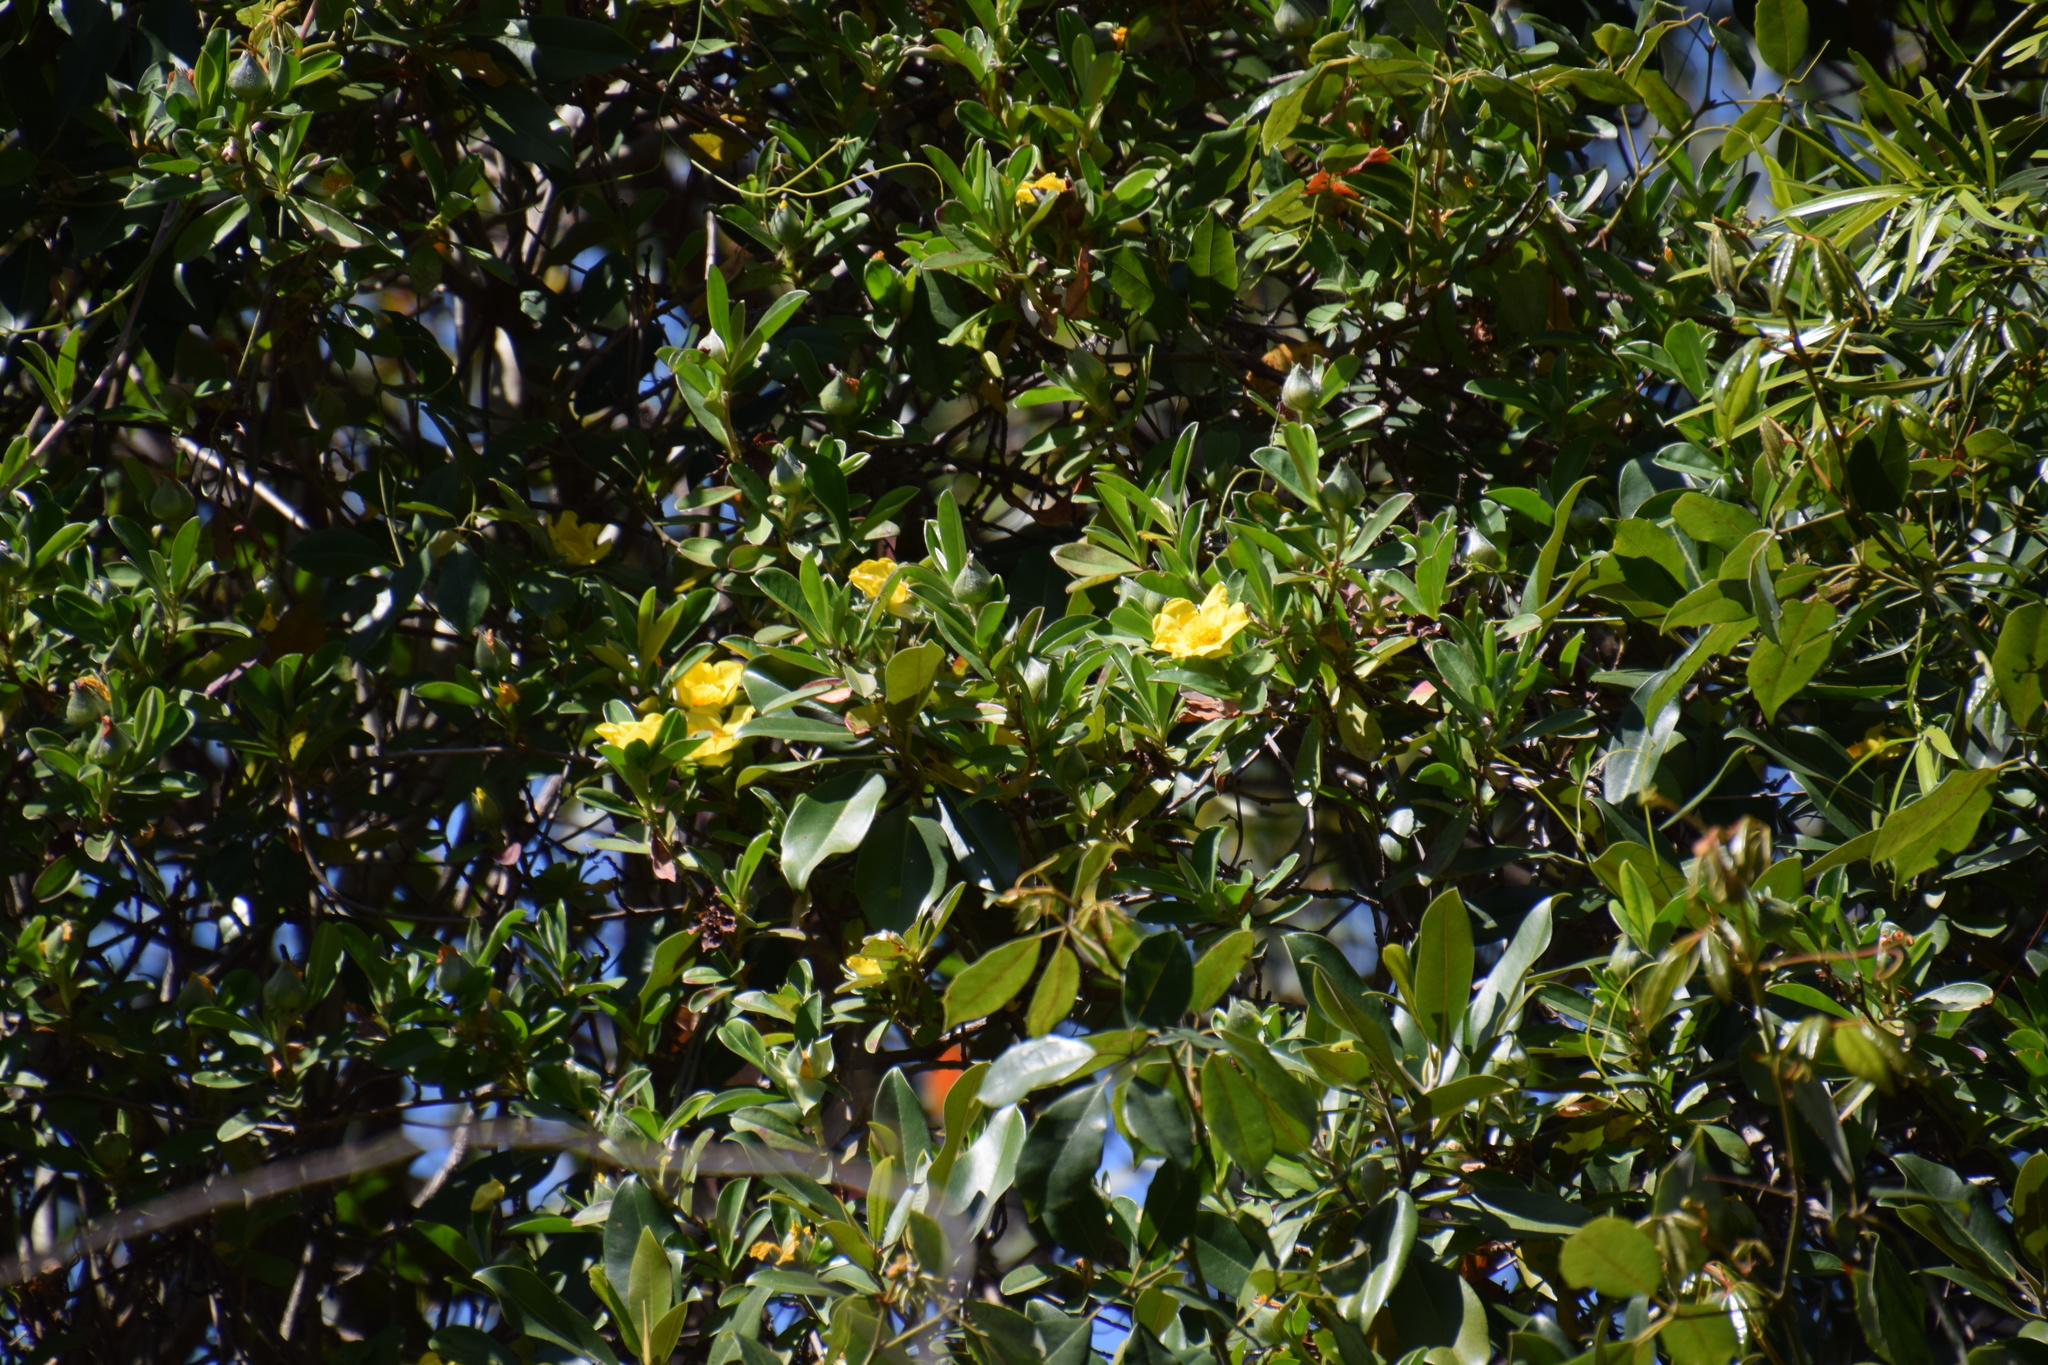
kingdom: Plantae
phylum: Tracheophyta
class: Magnoliopsida
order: Dilleniales
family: Dilleniaceae
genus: Hibbertia
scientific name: Hibbertia scandens
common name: Climbing guinea-flower
